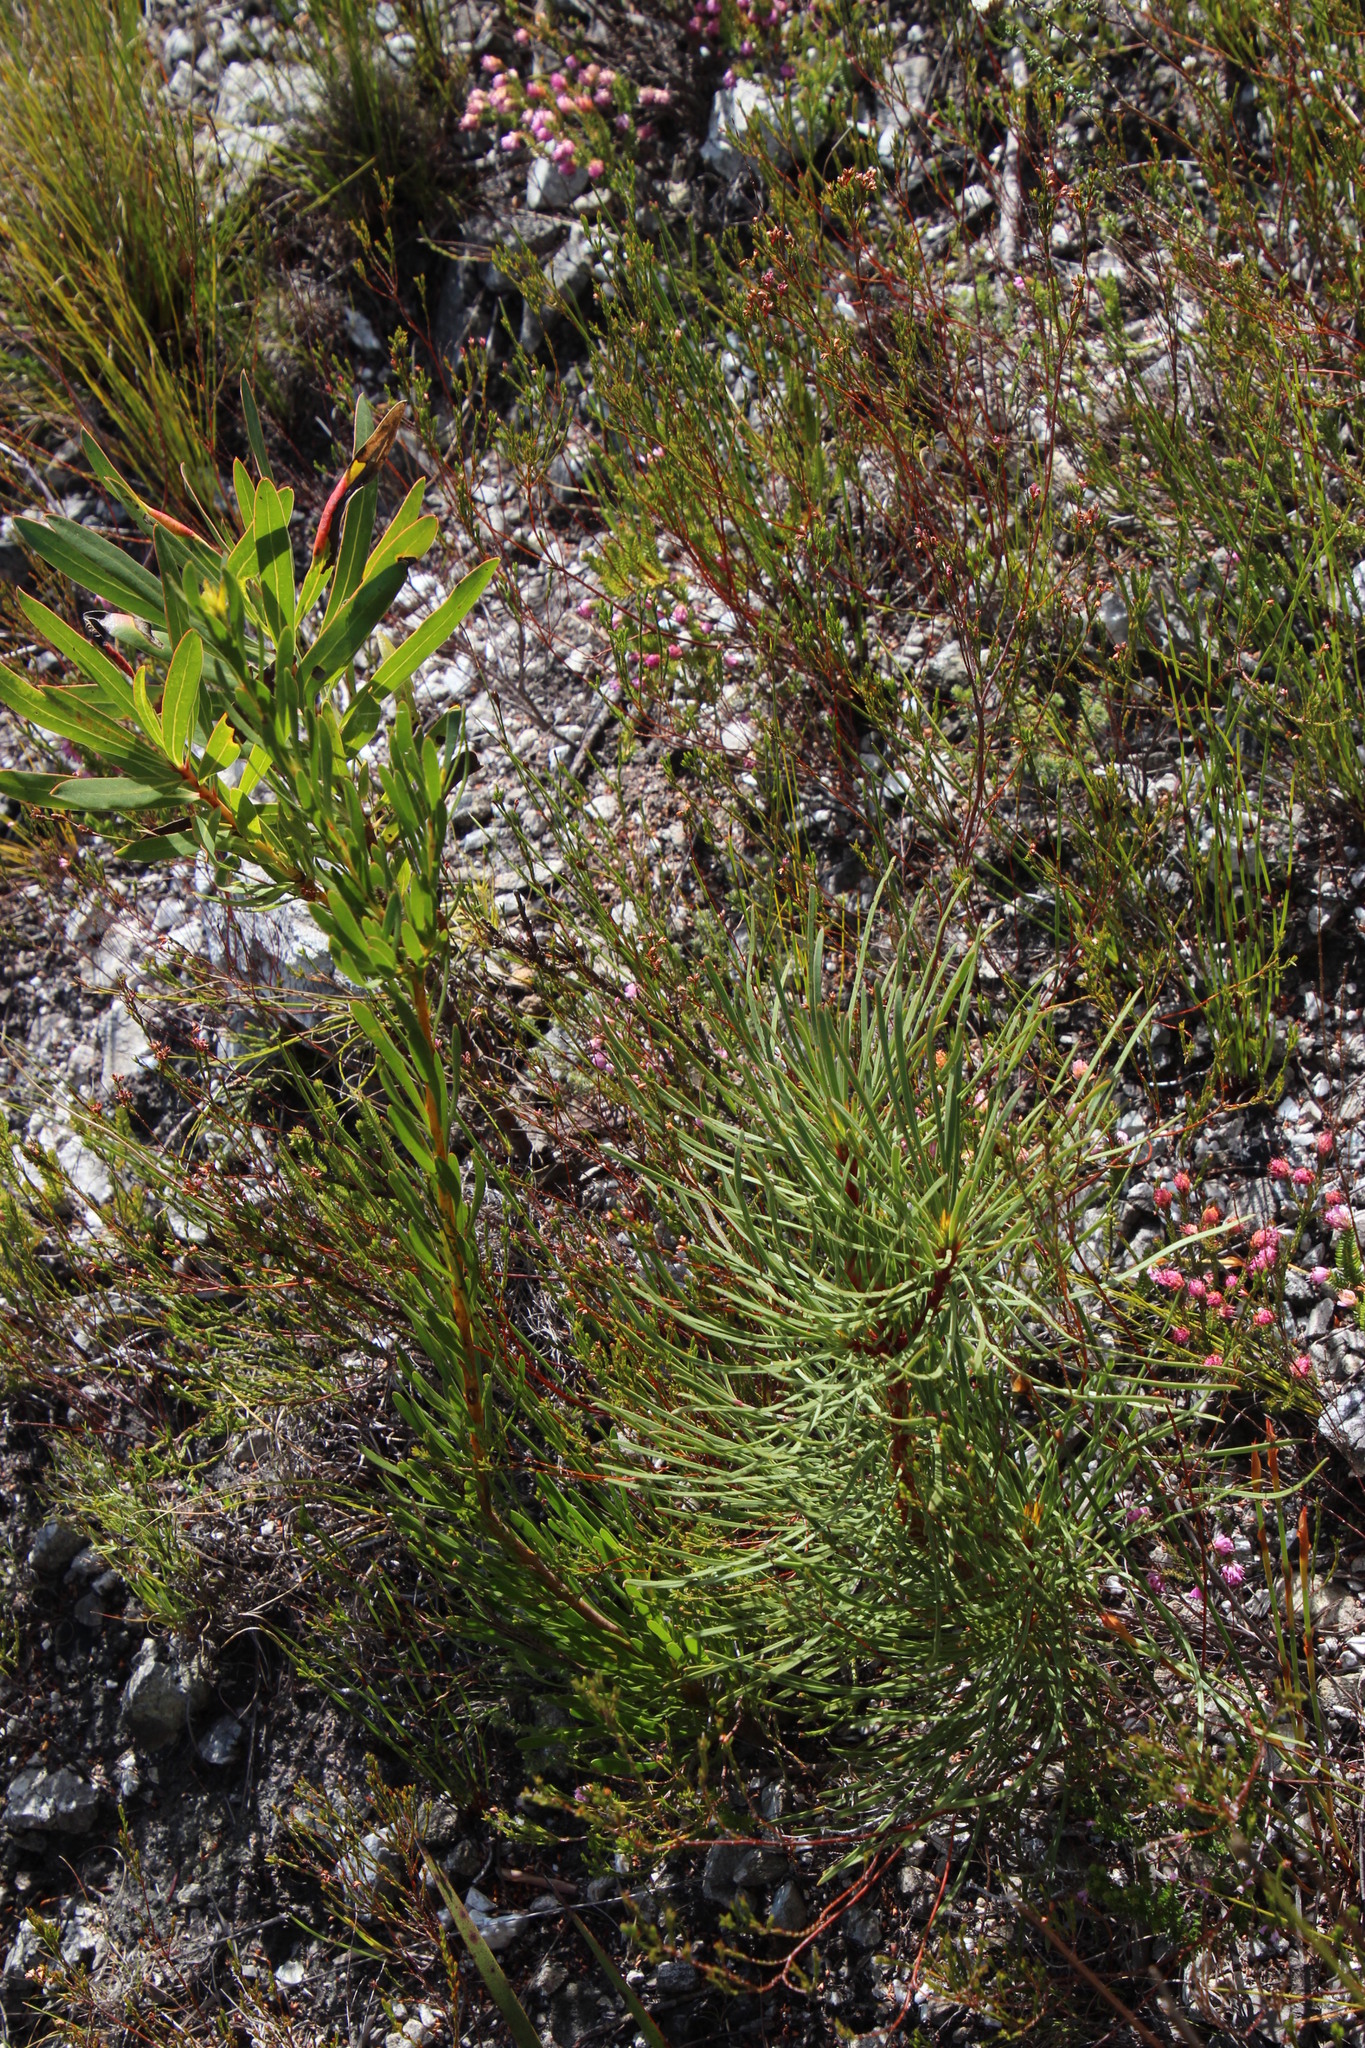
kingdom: Plantae
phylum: Tracheophyta
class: Pinopsida
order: Pinales
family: Pinaceae
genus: Pinus
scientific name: Pinus pinaster
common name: Maritime pine
